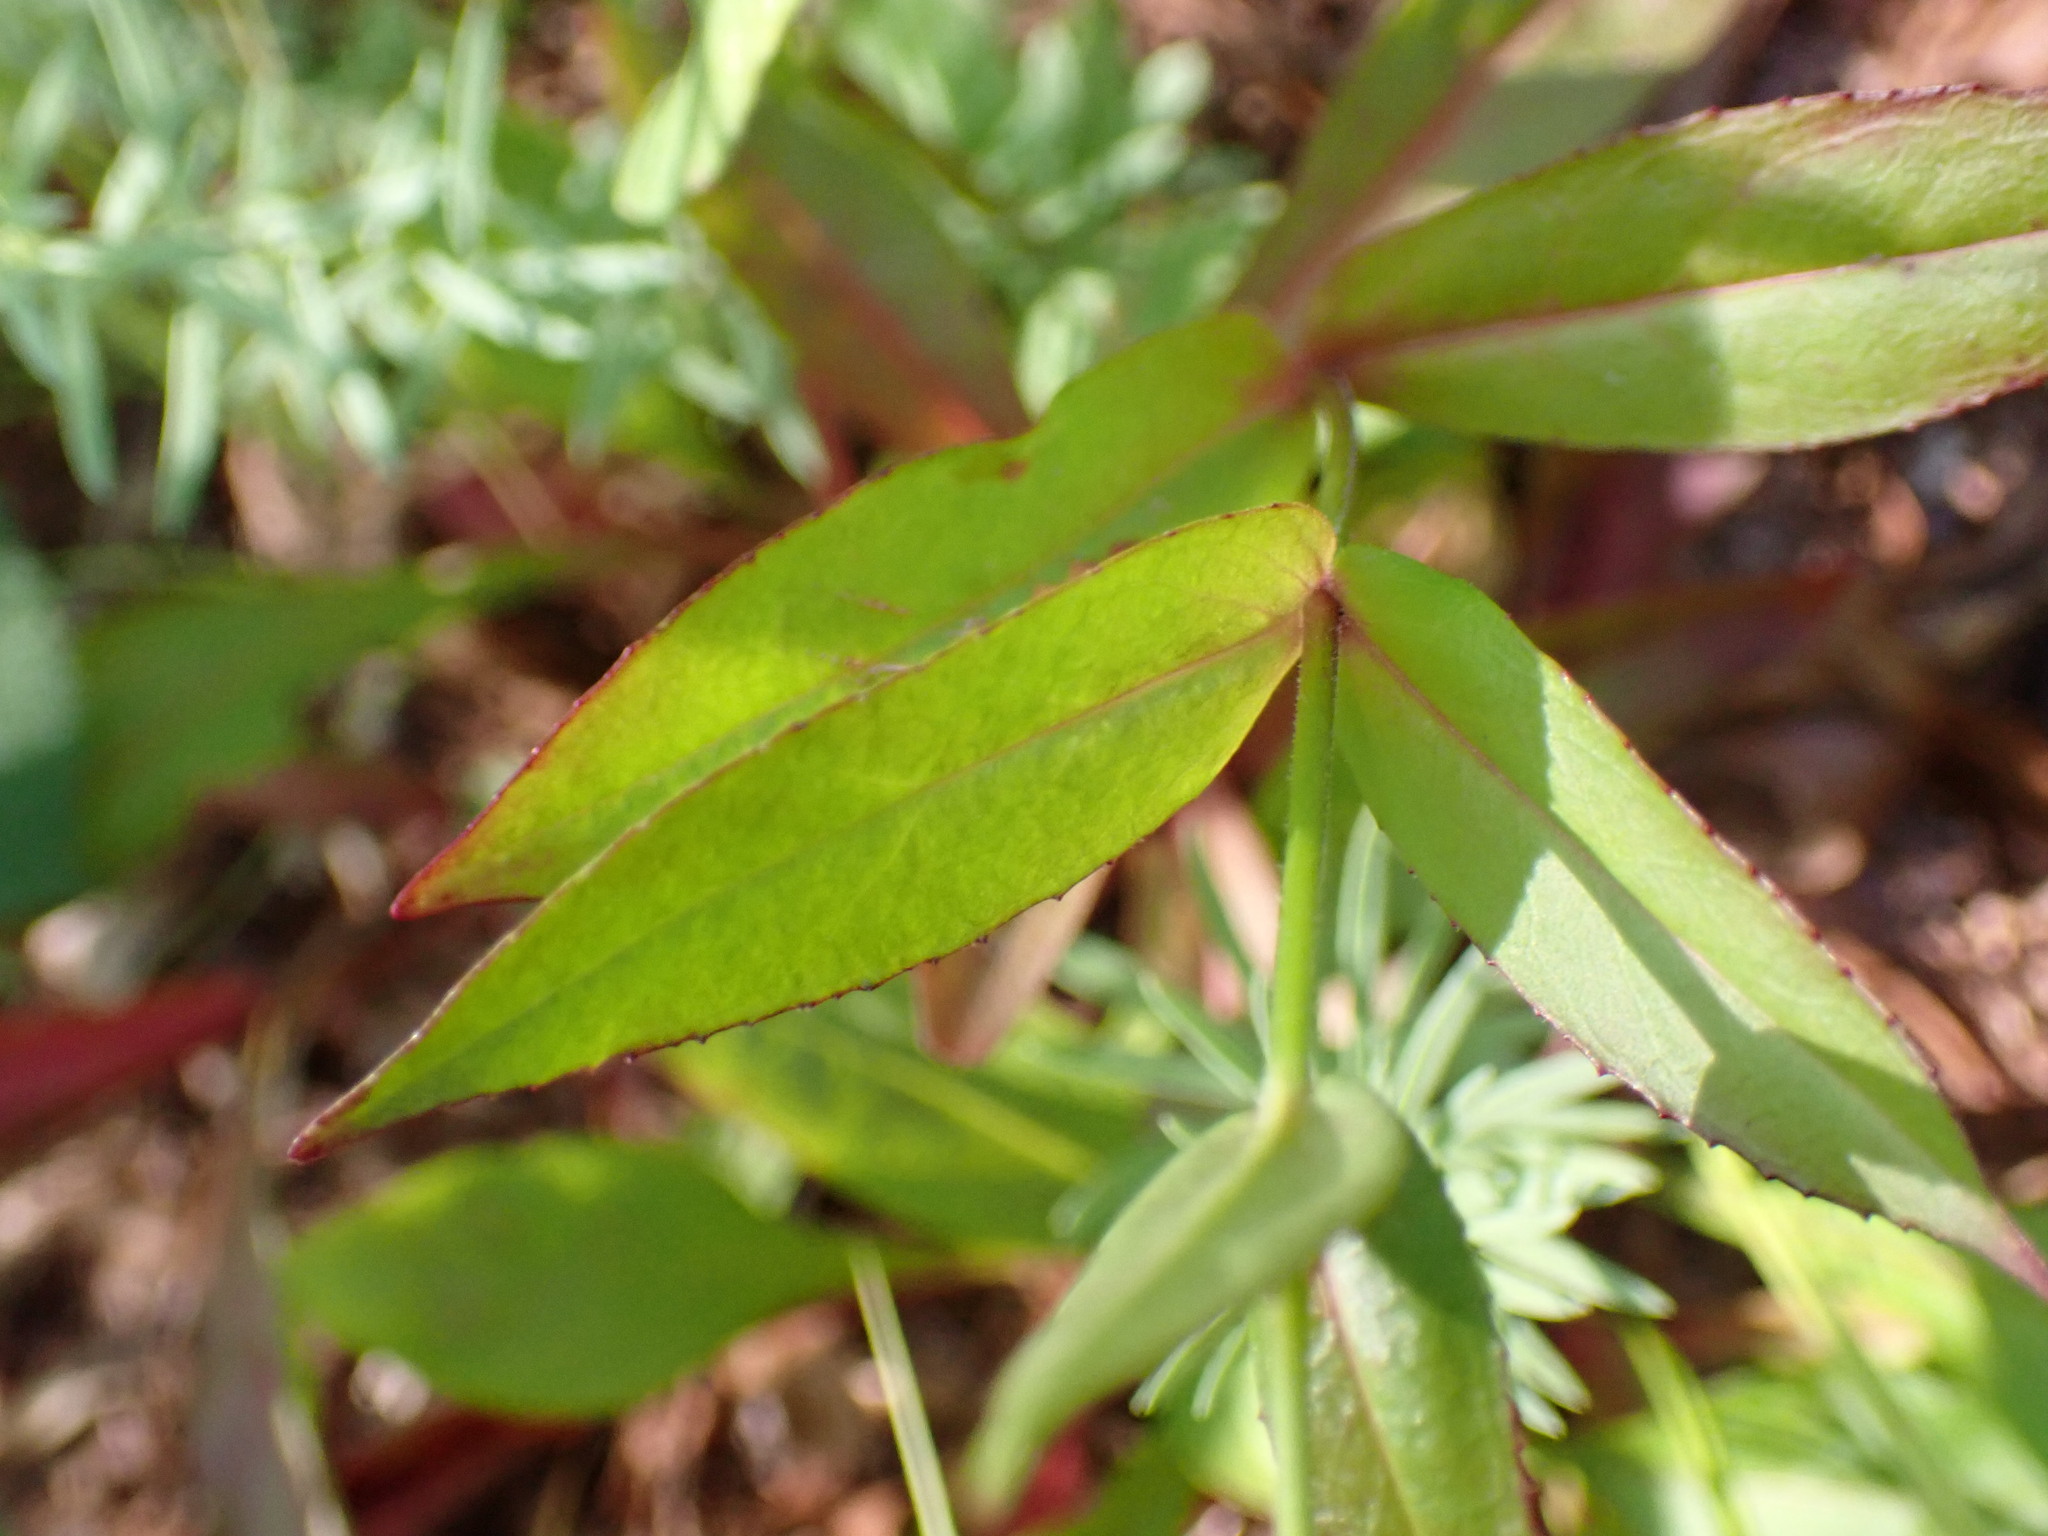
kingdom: Plantae
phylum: Tracheophyta
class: Magnoliopsida
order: Lamiales
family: Plantaginaceae
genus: Penstemon
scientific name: Penstemon calycosus
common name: Long-sepal beardtongue
